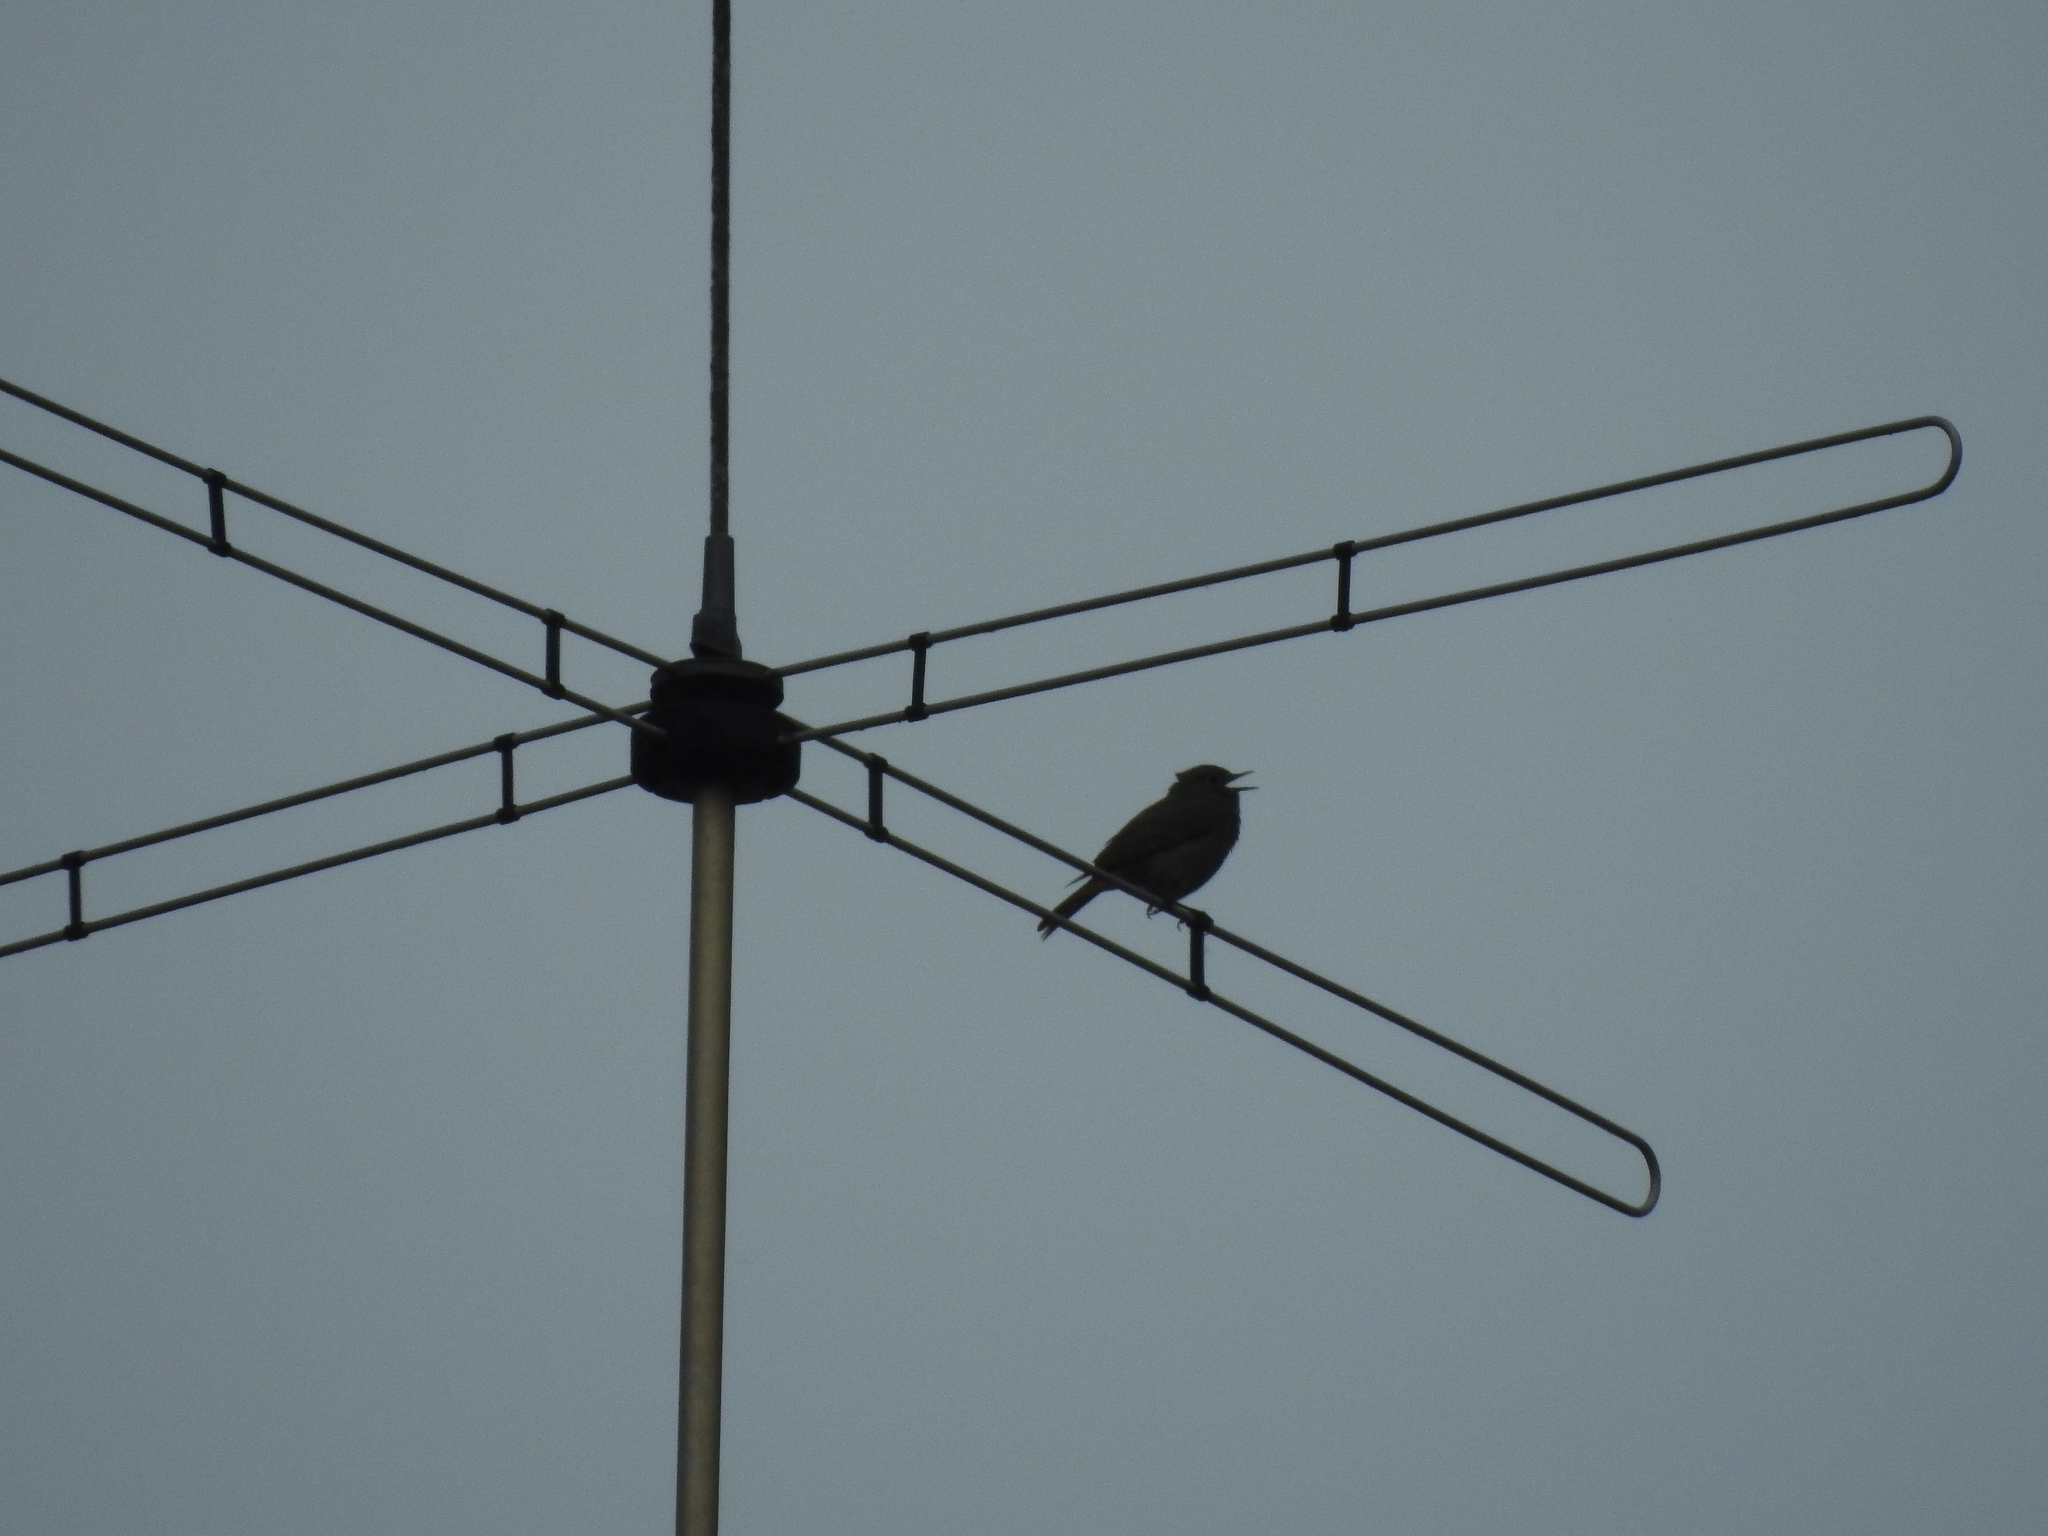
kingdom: Animalia
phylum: Chordata
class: Aves
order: Passeriformes
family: Sylviidae
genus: Sylvia
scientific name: Sylvia communis
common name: Common whitethroat
